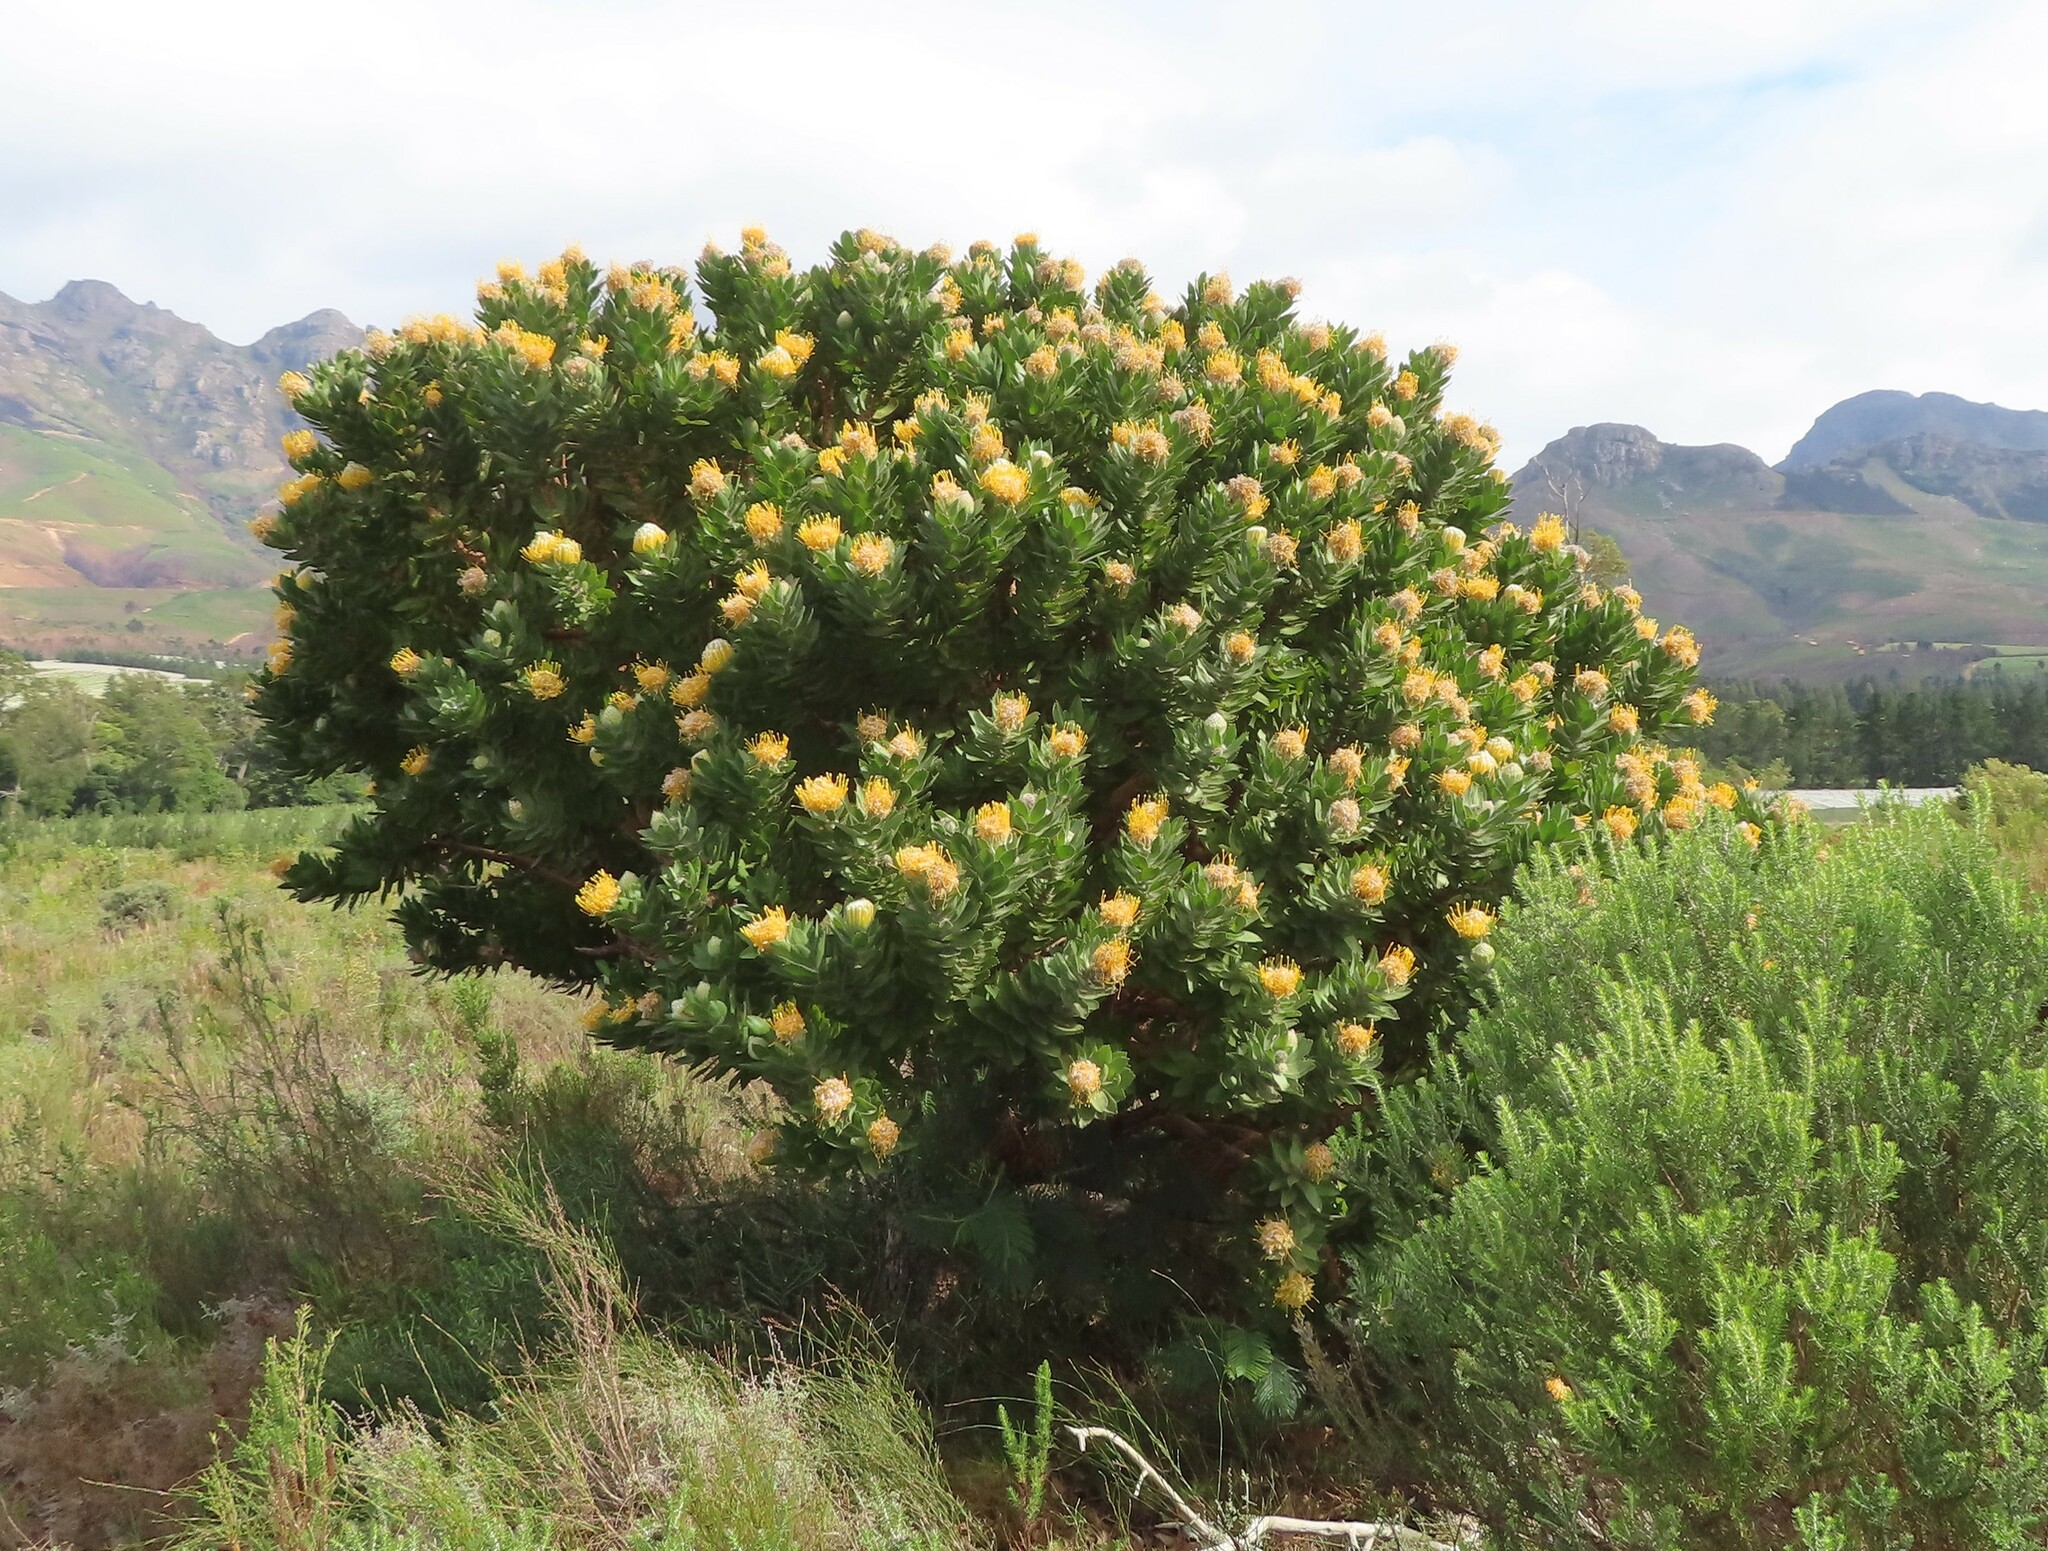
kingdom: Plantae
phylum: Tracheophyta
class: Magnoliopsida
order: Proteales
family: Proteaceae
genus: Leucospermum
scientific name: Leucospermum conocarpodendron
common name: Tree pincushion
